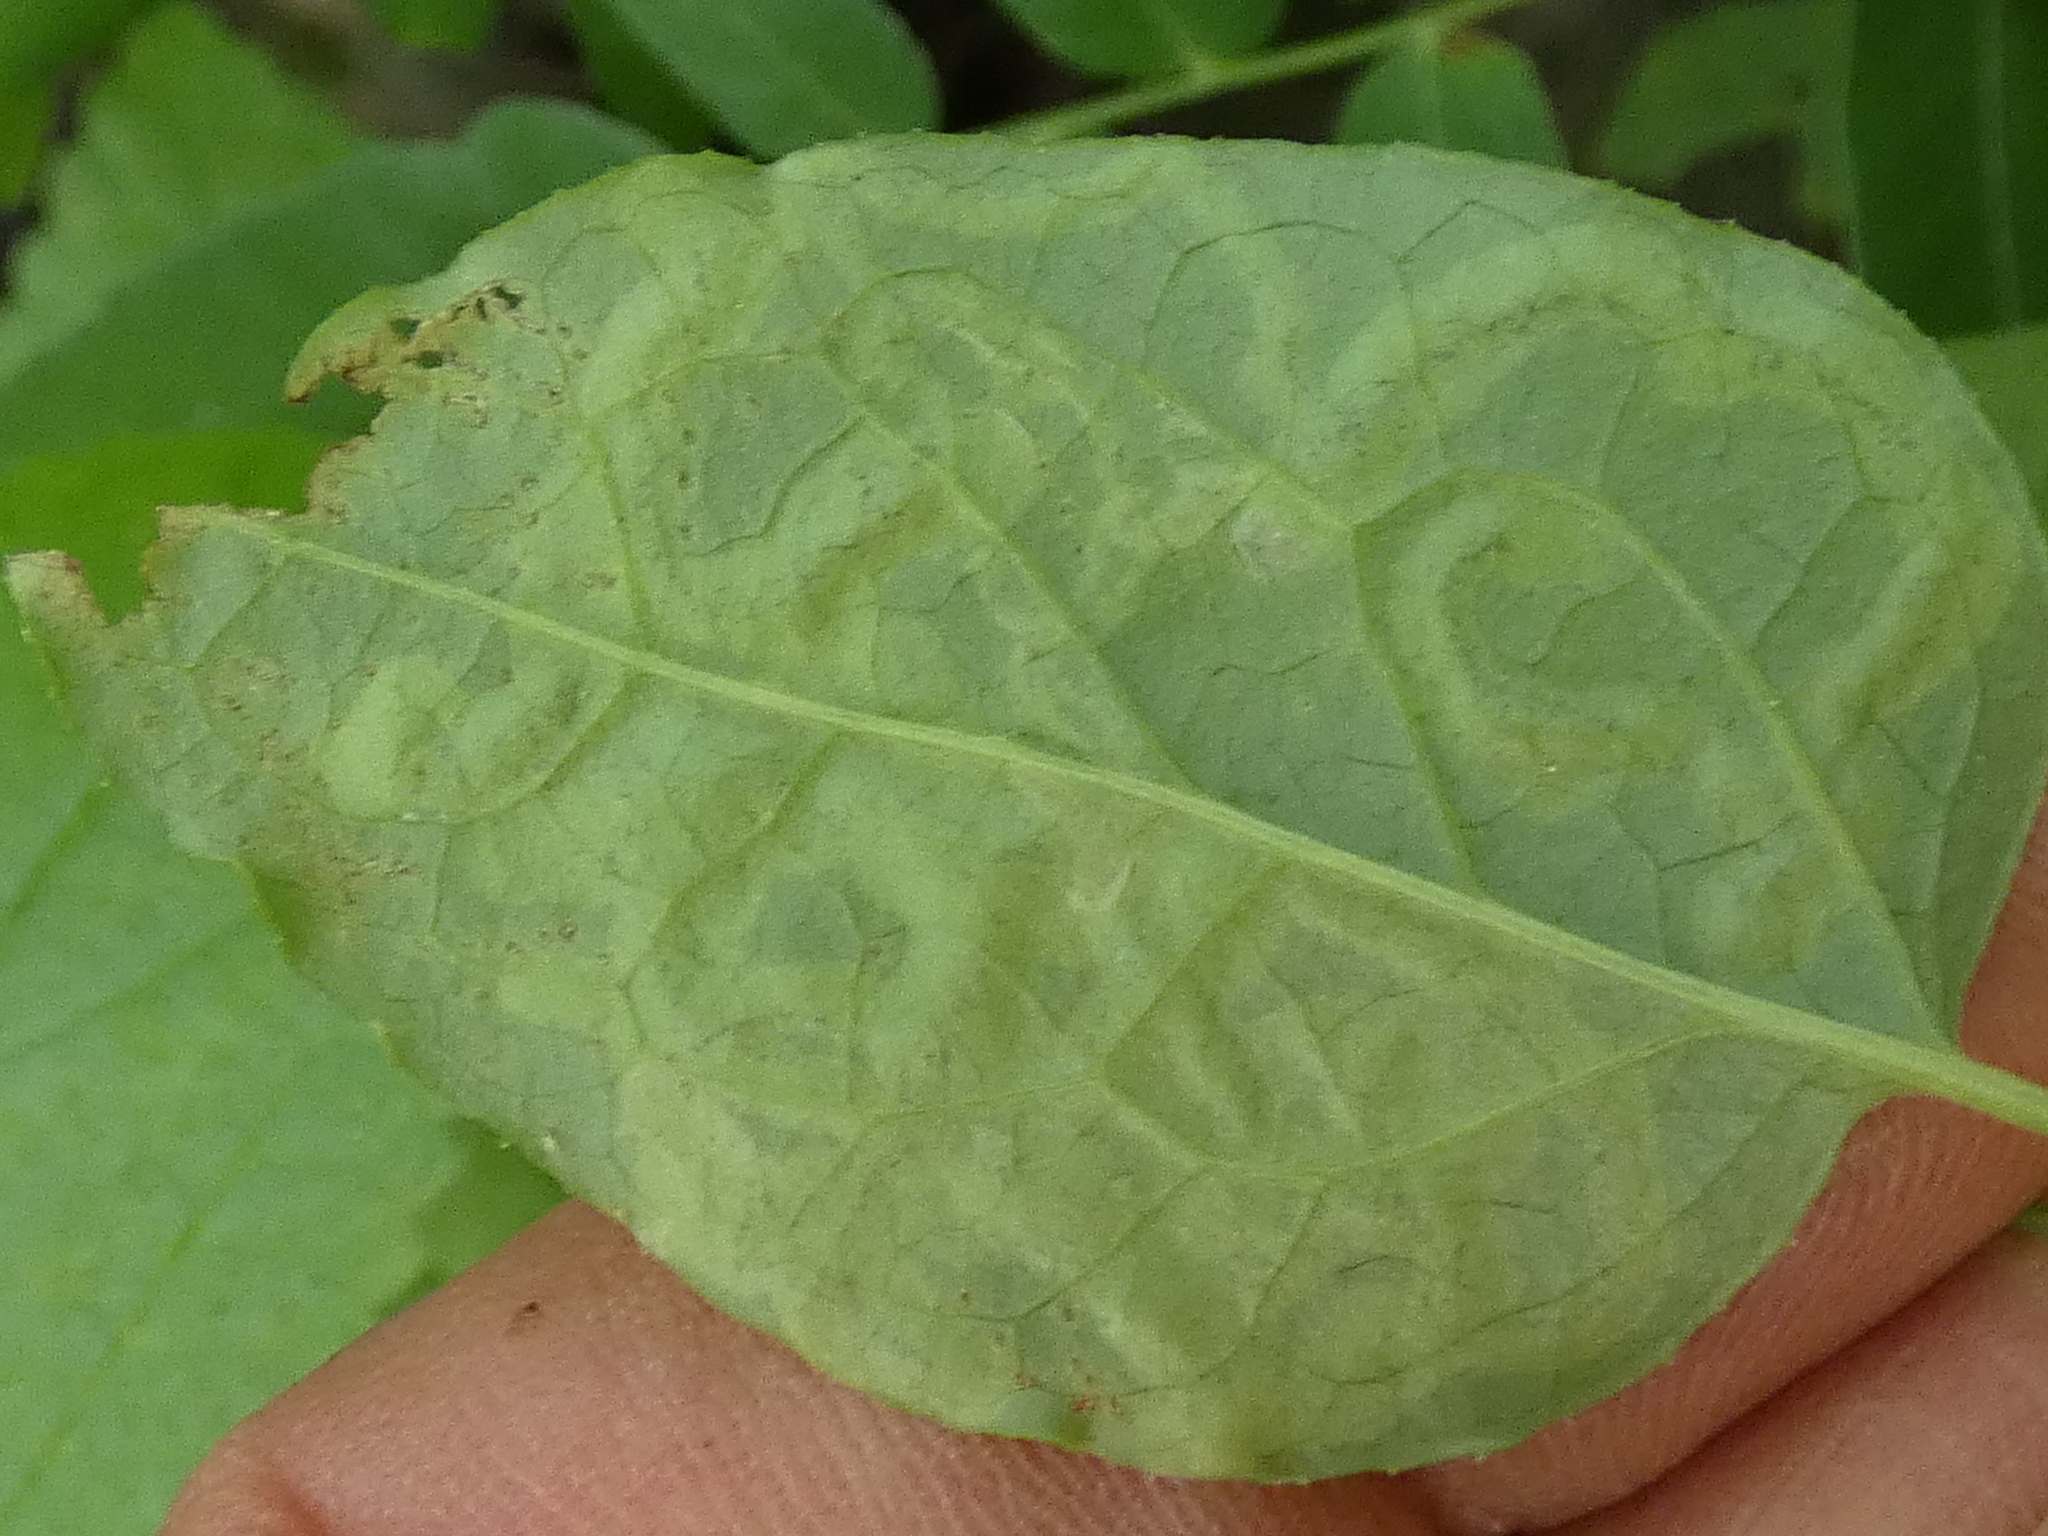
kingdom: Animalia
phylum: Arthropoda
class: Insecta
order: Diptera
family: Agromyzidae
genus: Phytomyza
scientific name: Phytomyza loewii
